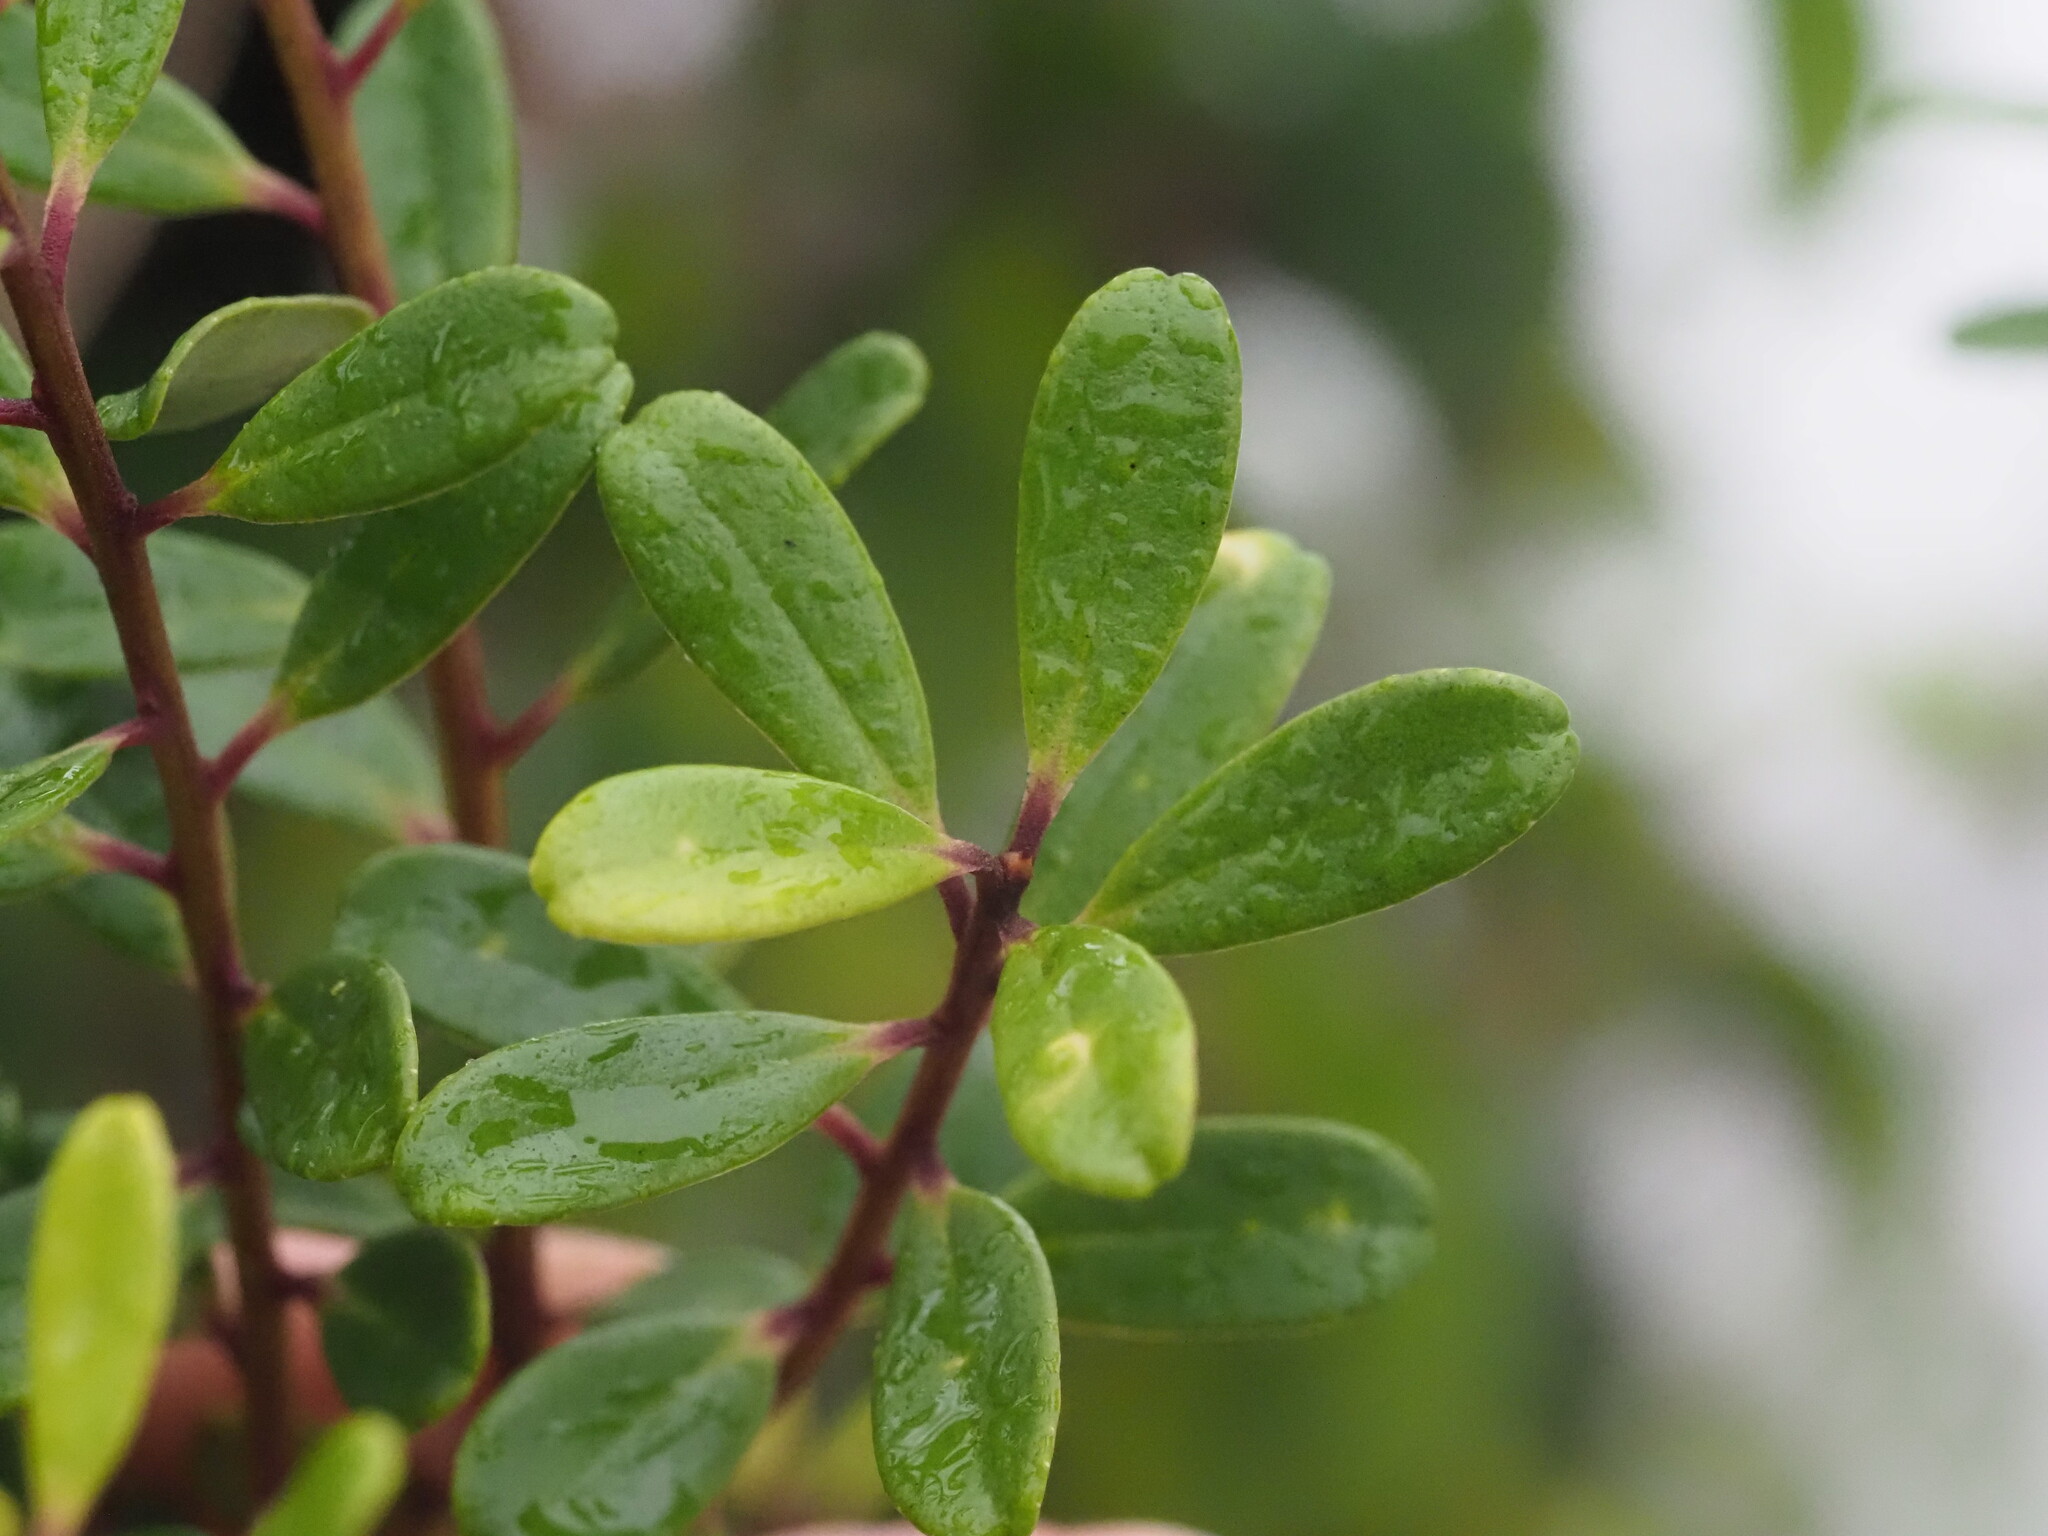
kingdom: Plantae
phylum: Tracheophyta
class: Magnoliopsida
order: Ericales
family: Primulaceae
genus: Myrsine
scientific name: Myrsine sandwicensis
